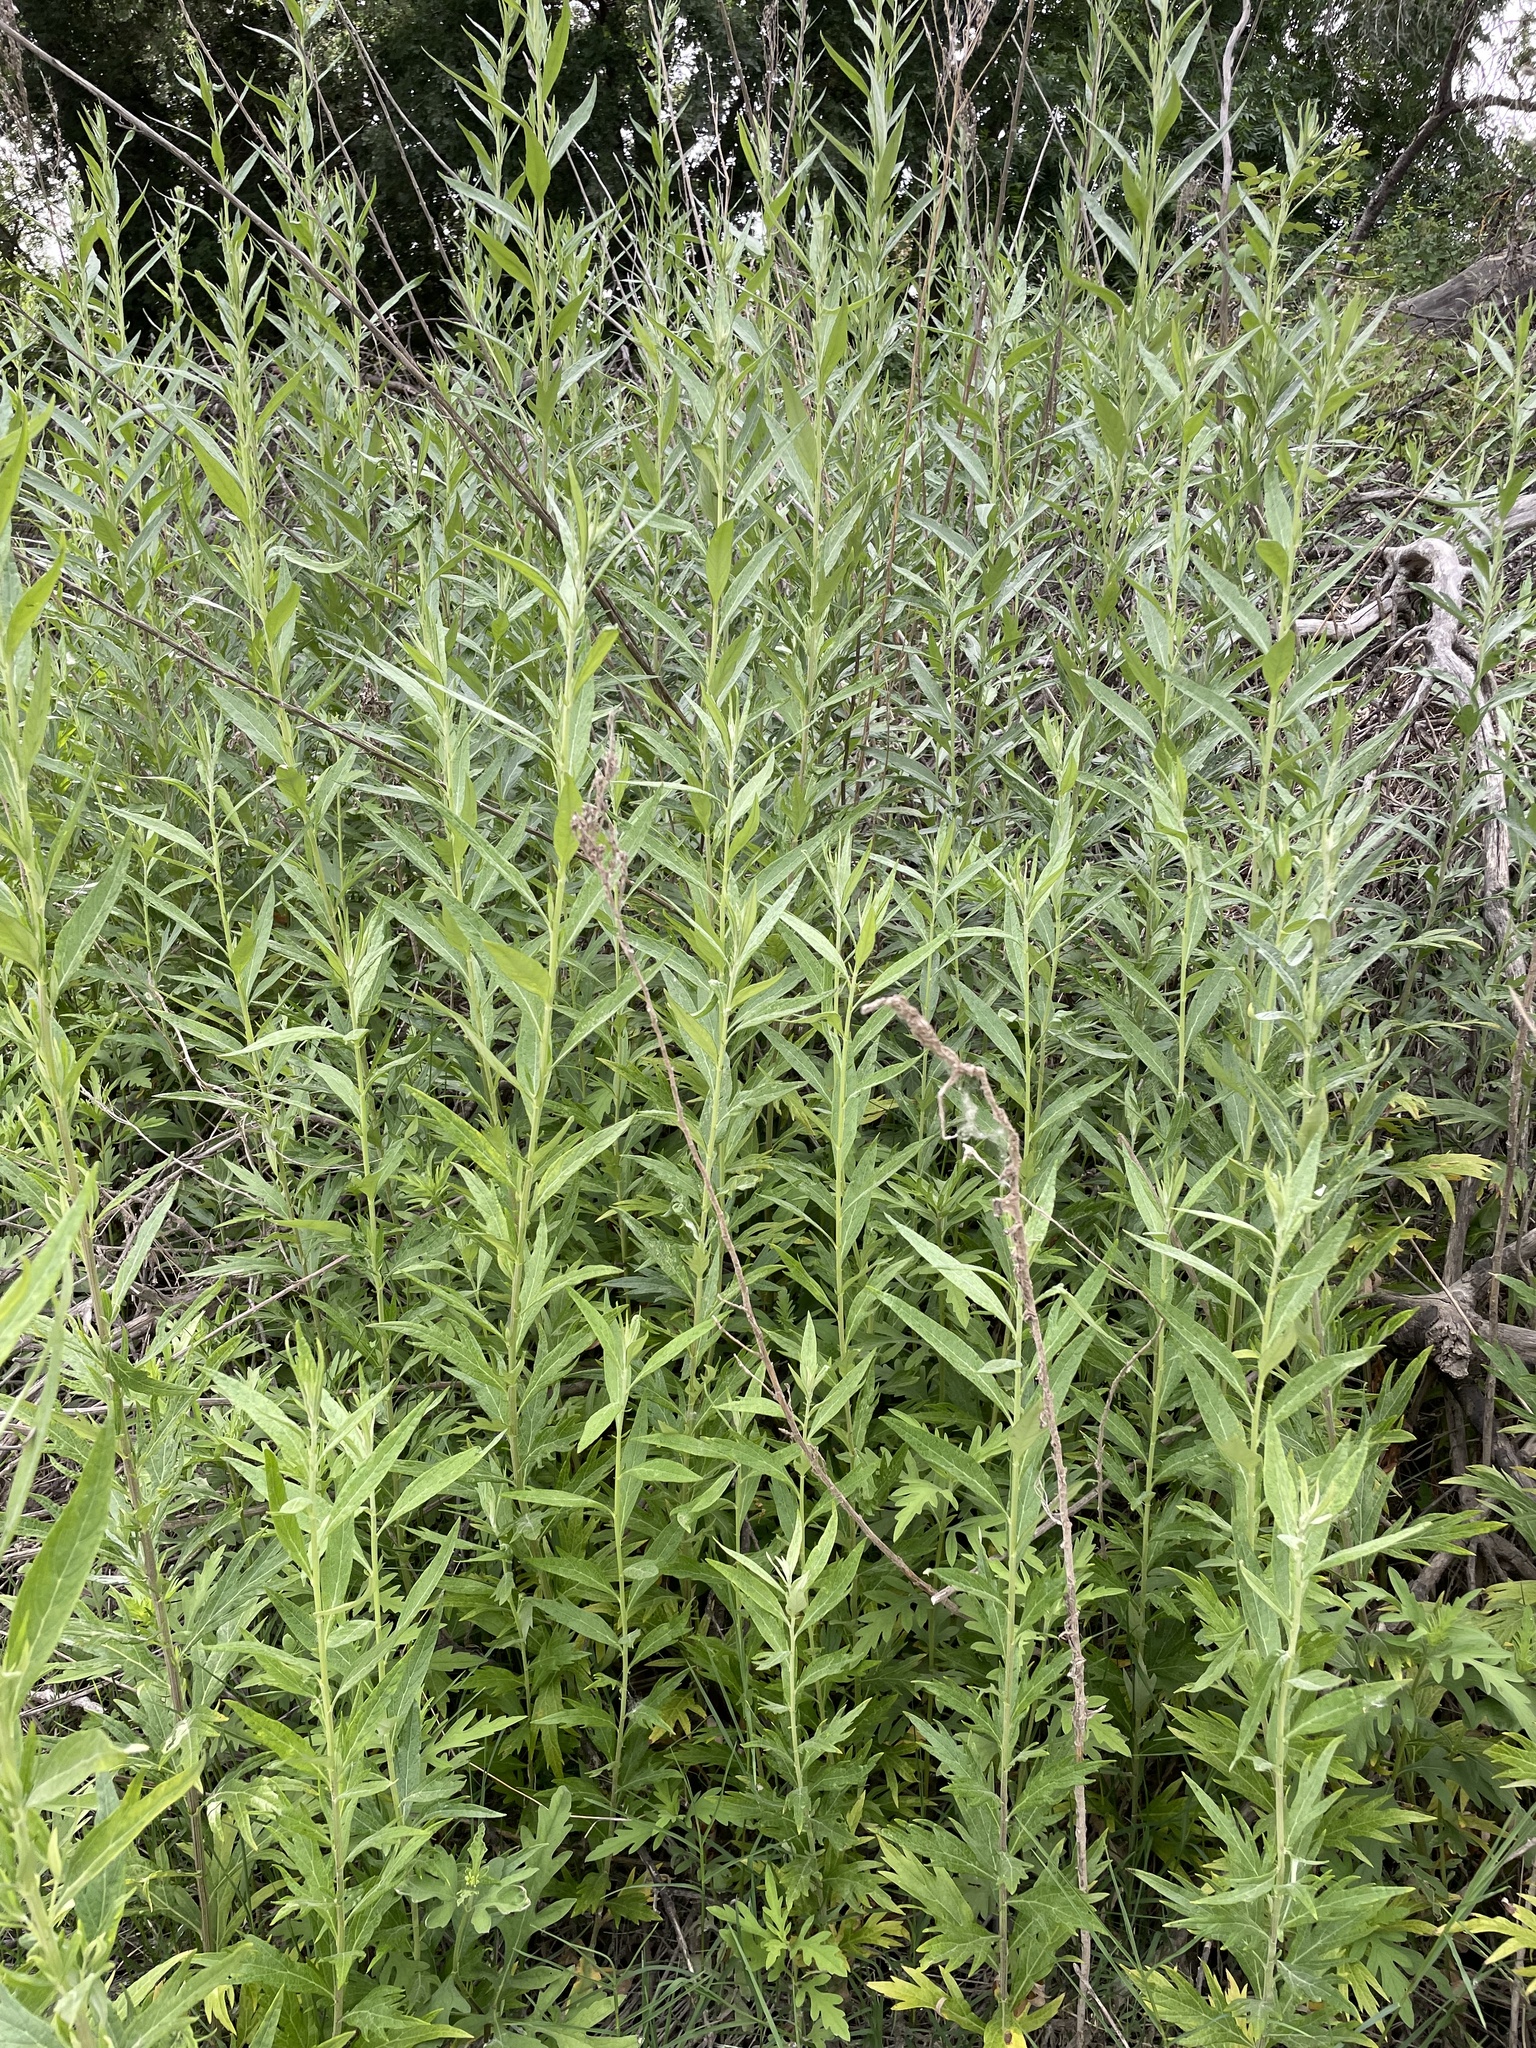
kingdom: Plantae
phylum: Tracheophyta
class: Magnoliopsida
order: Asterales
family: Asteraceae
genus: Artemisia
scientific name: Artemisia douglasiana
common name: Northwest mugwort
